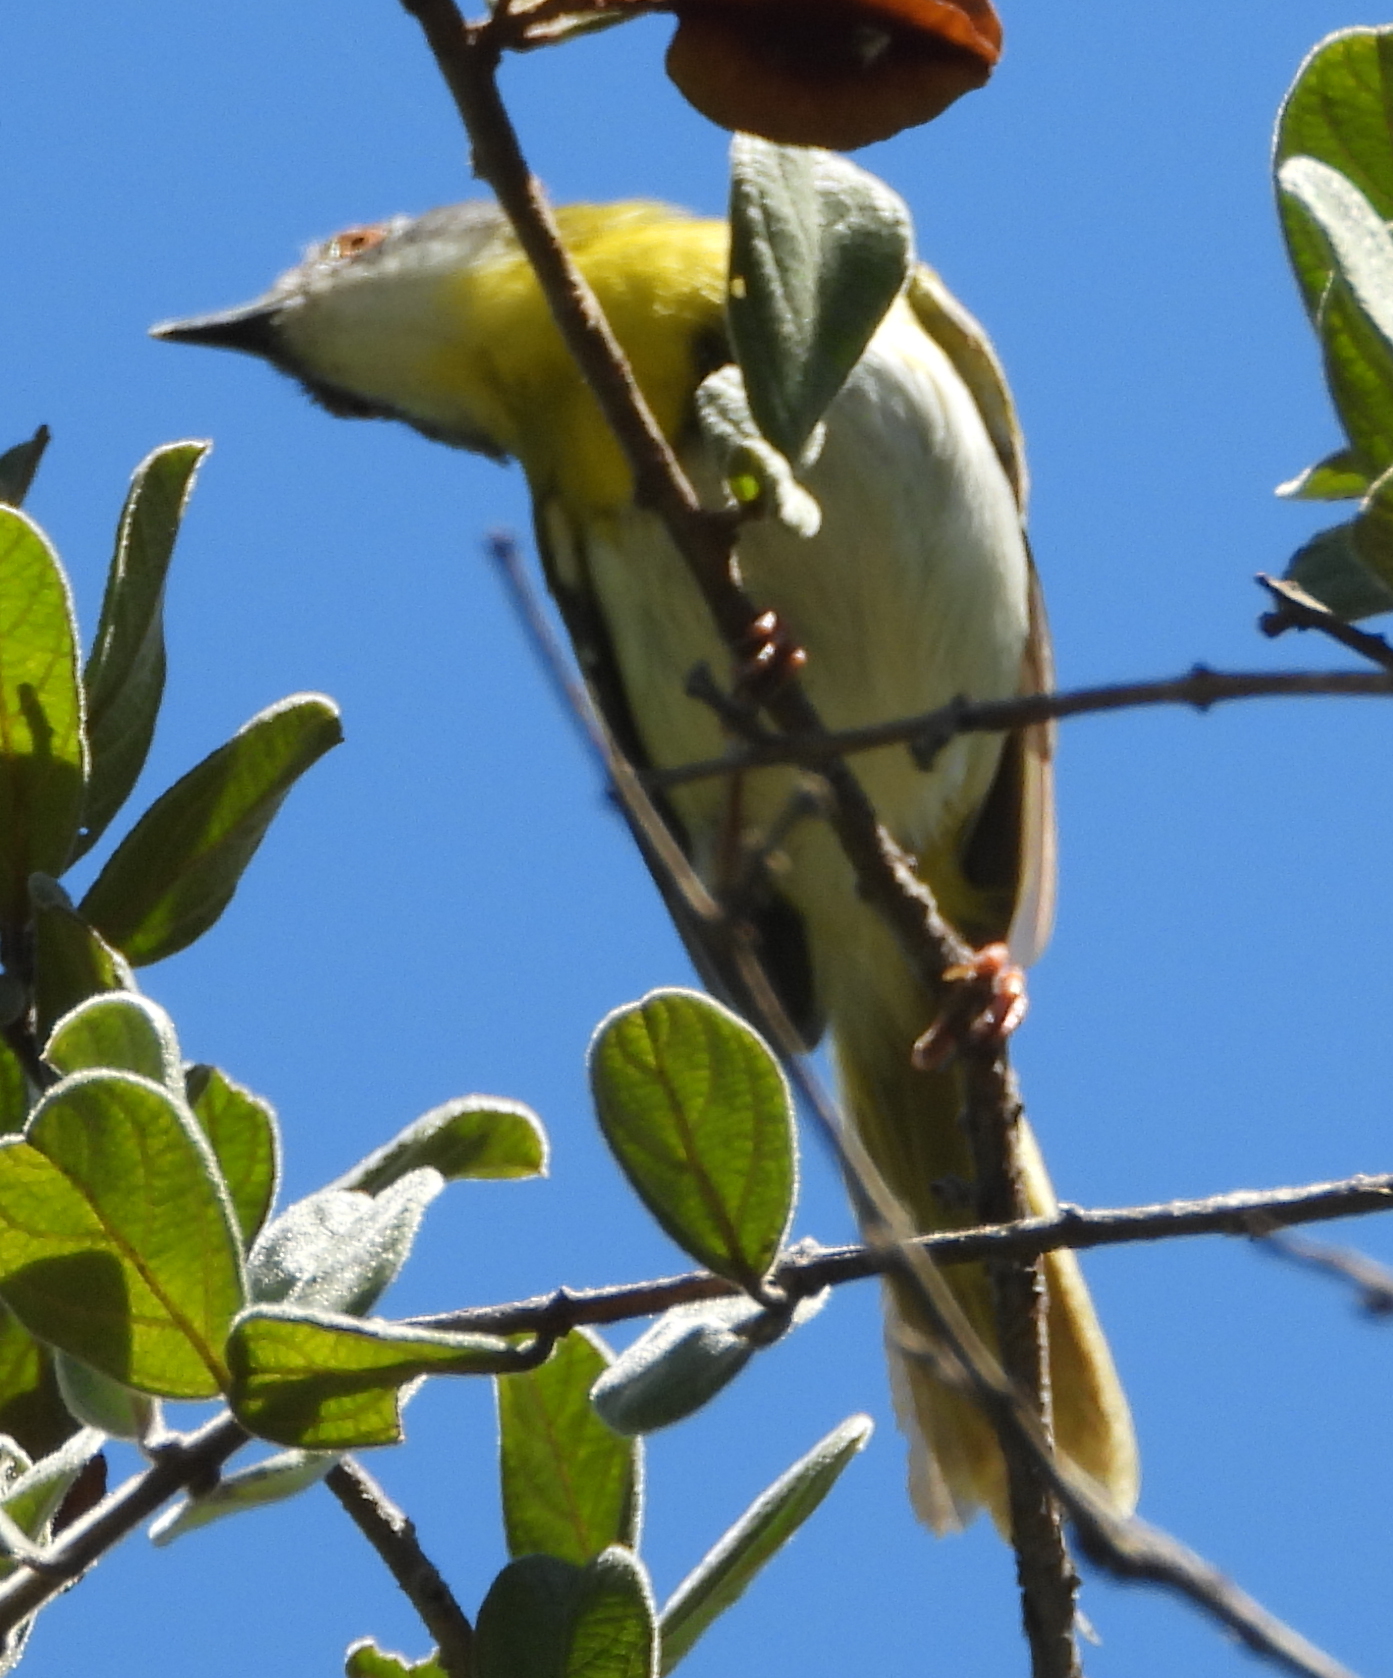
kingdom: Animalia
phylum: Chordata
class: Aves
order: Passeriformes
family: Cisticolidae
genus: Apalis
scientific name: Apalis flavida
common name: Yellow-breasted apalis
